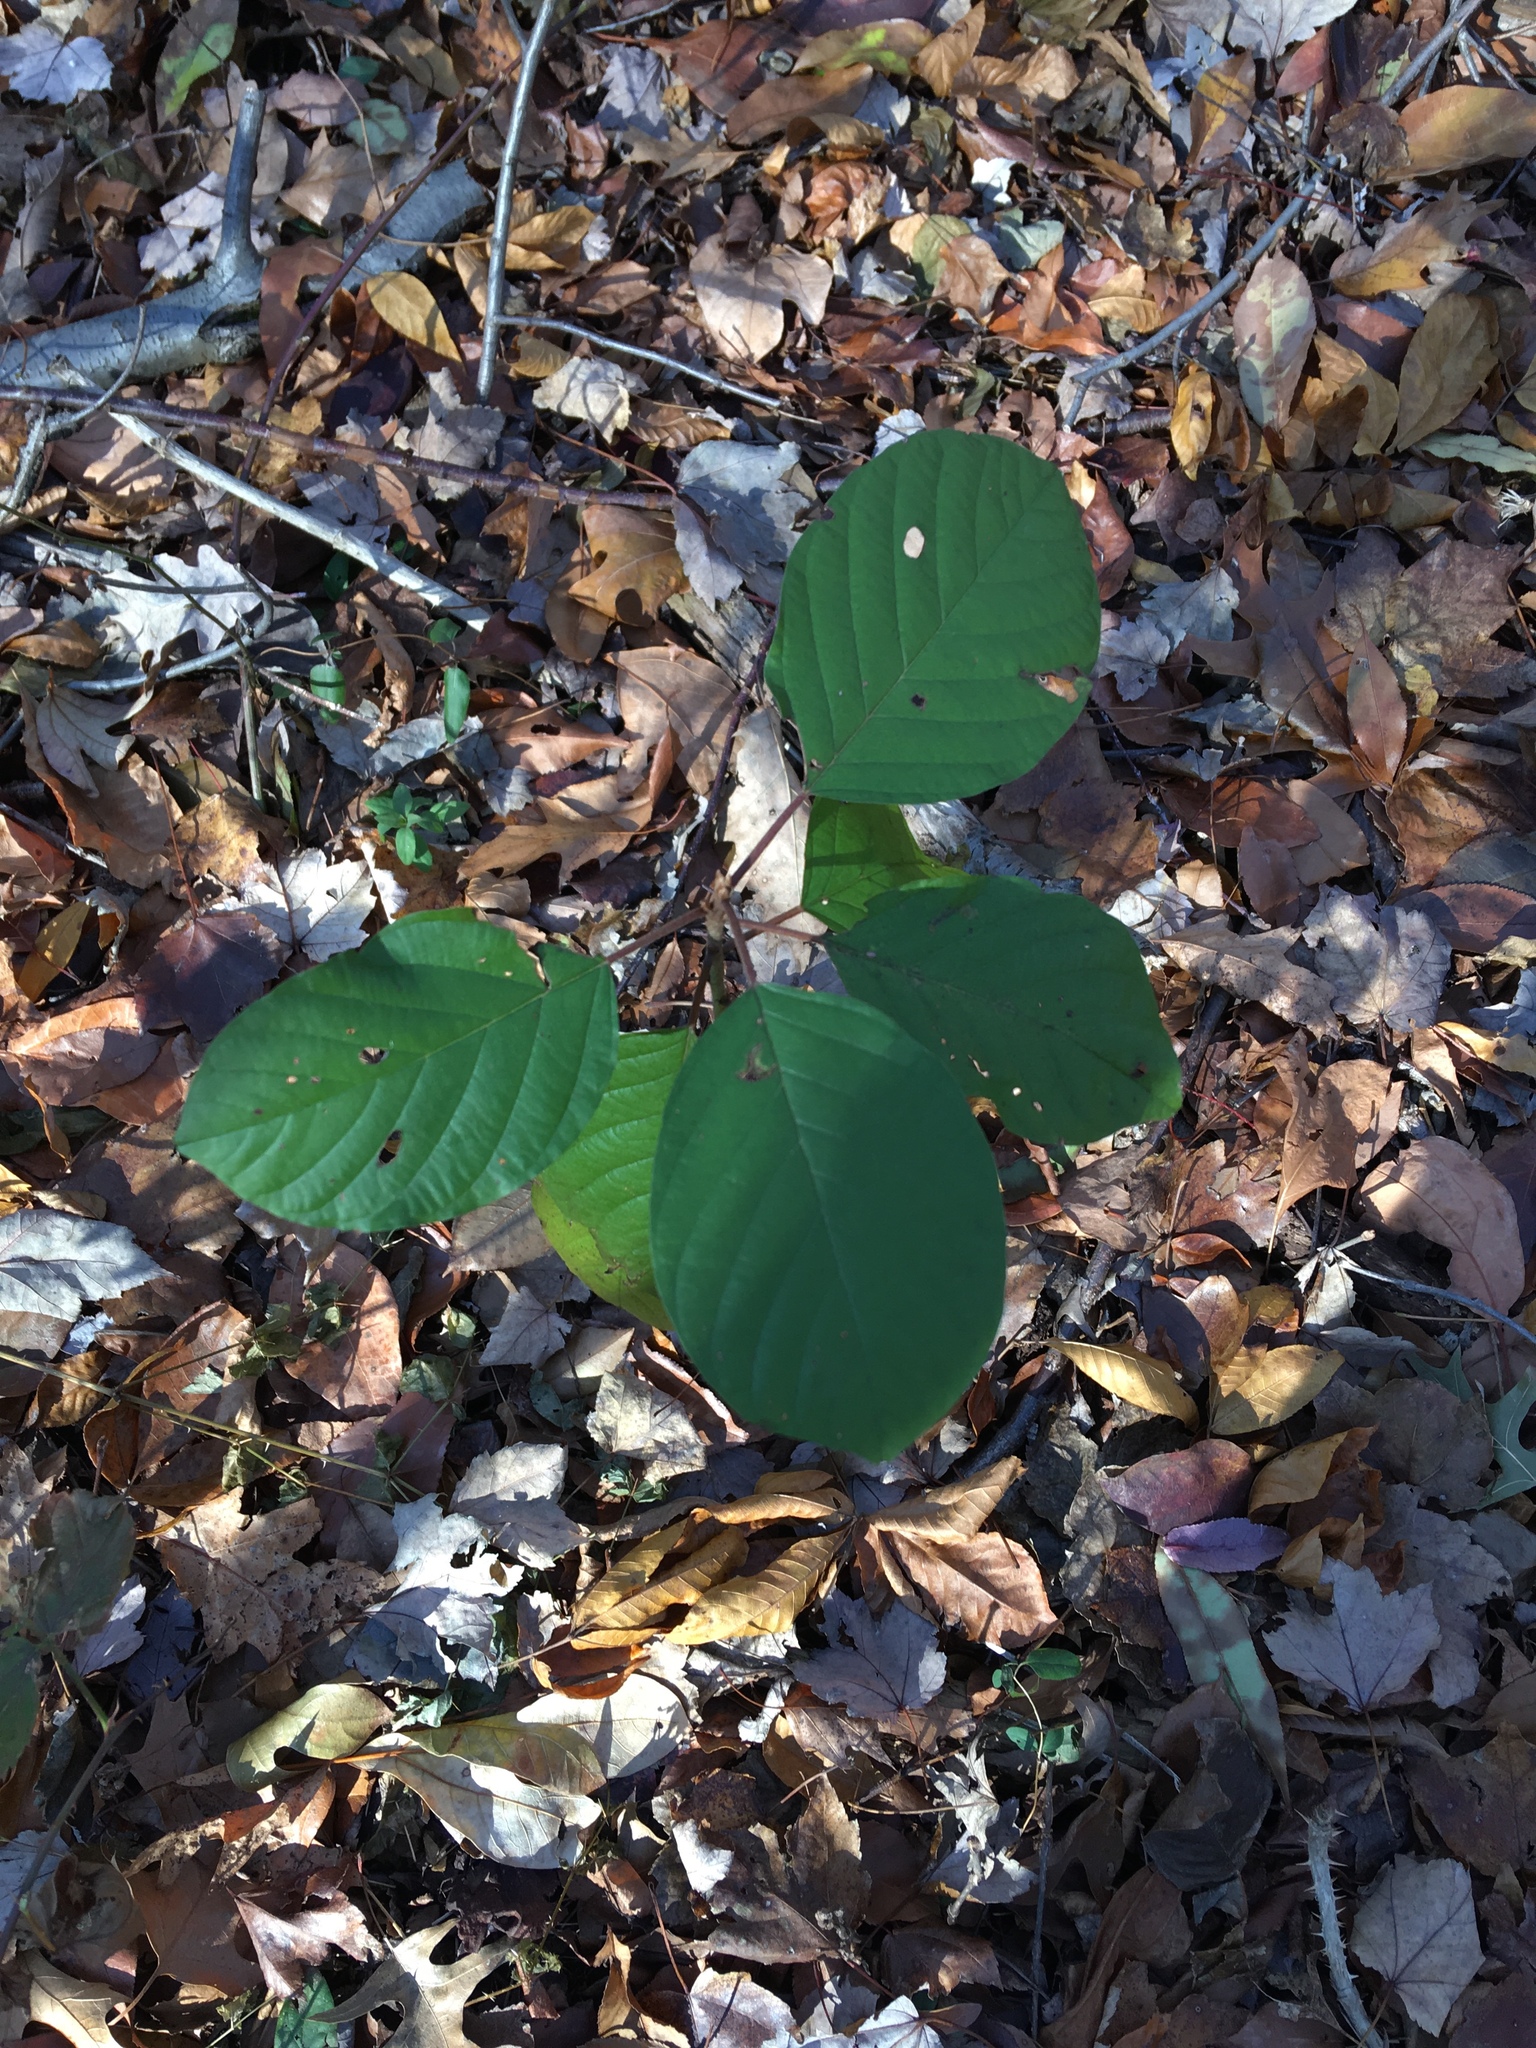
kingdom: Plantae
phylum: Tracheophyta
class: Magnoliopsida
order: Rosales
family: Rhamnaceae
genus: Frangula
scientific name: Frangula alnus
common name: Alder buckthorn
